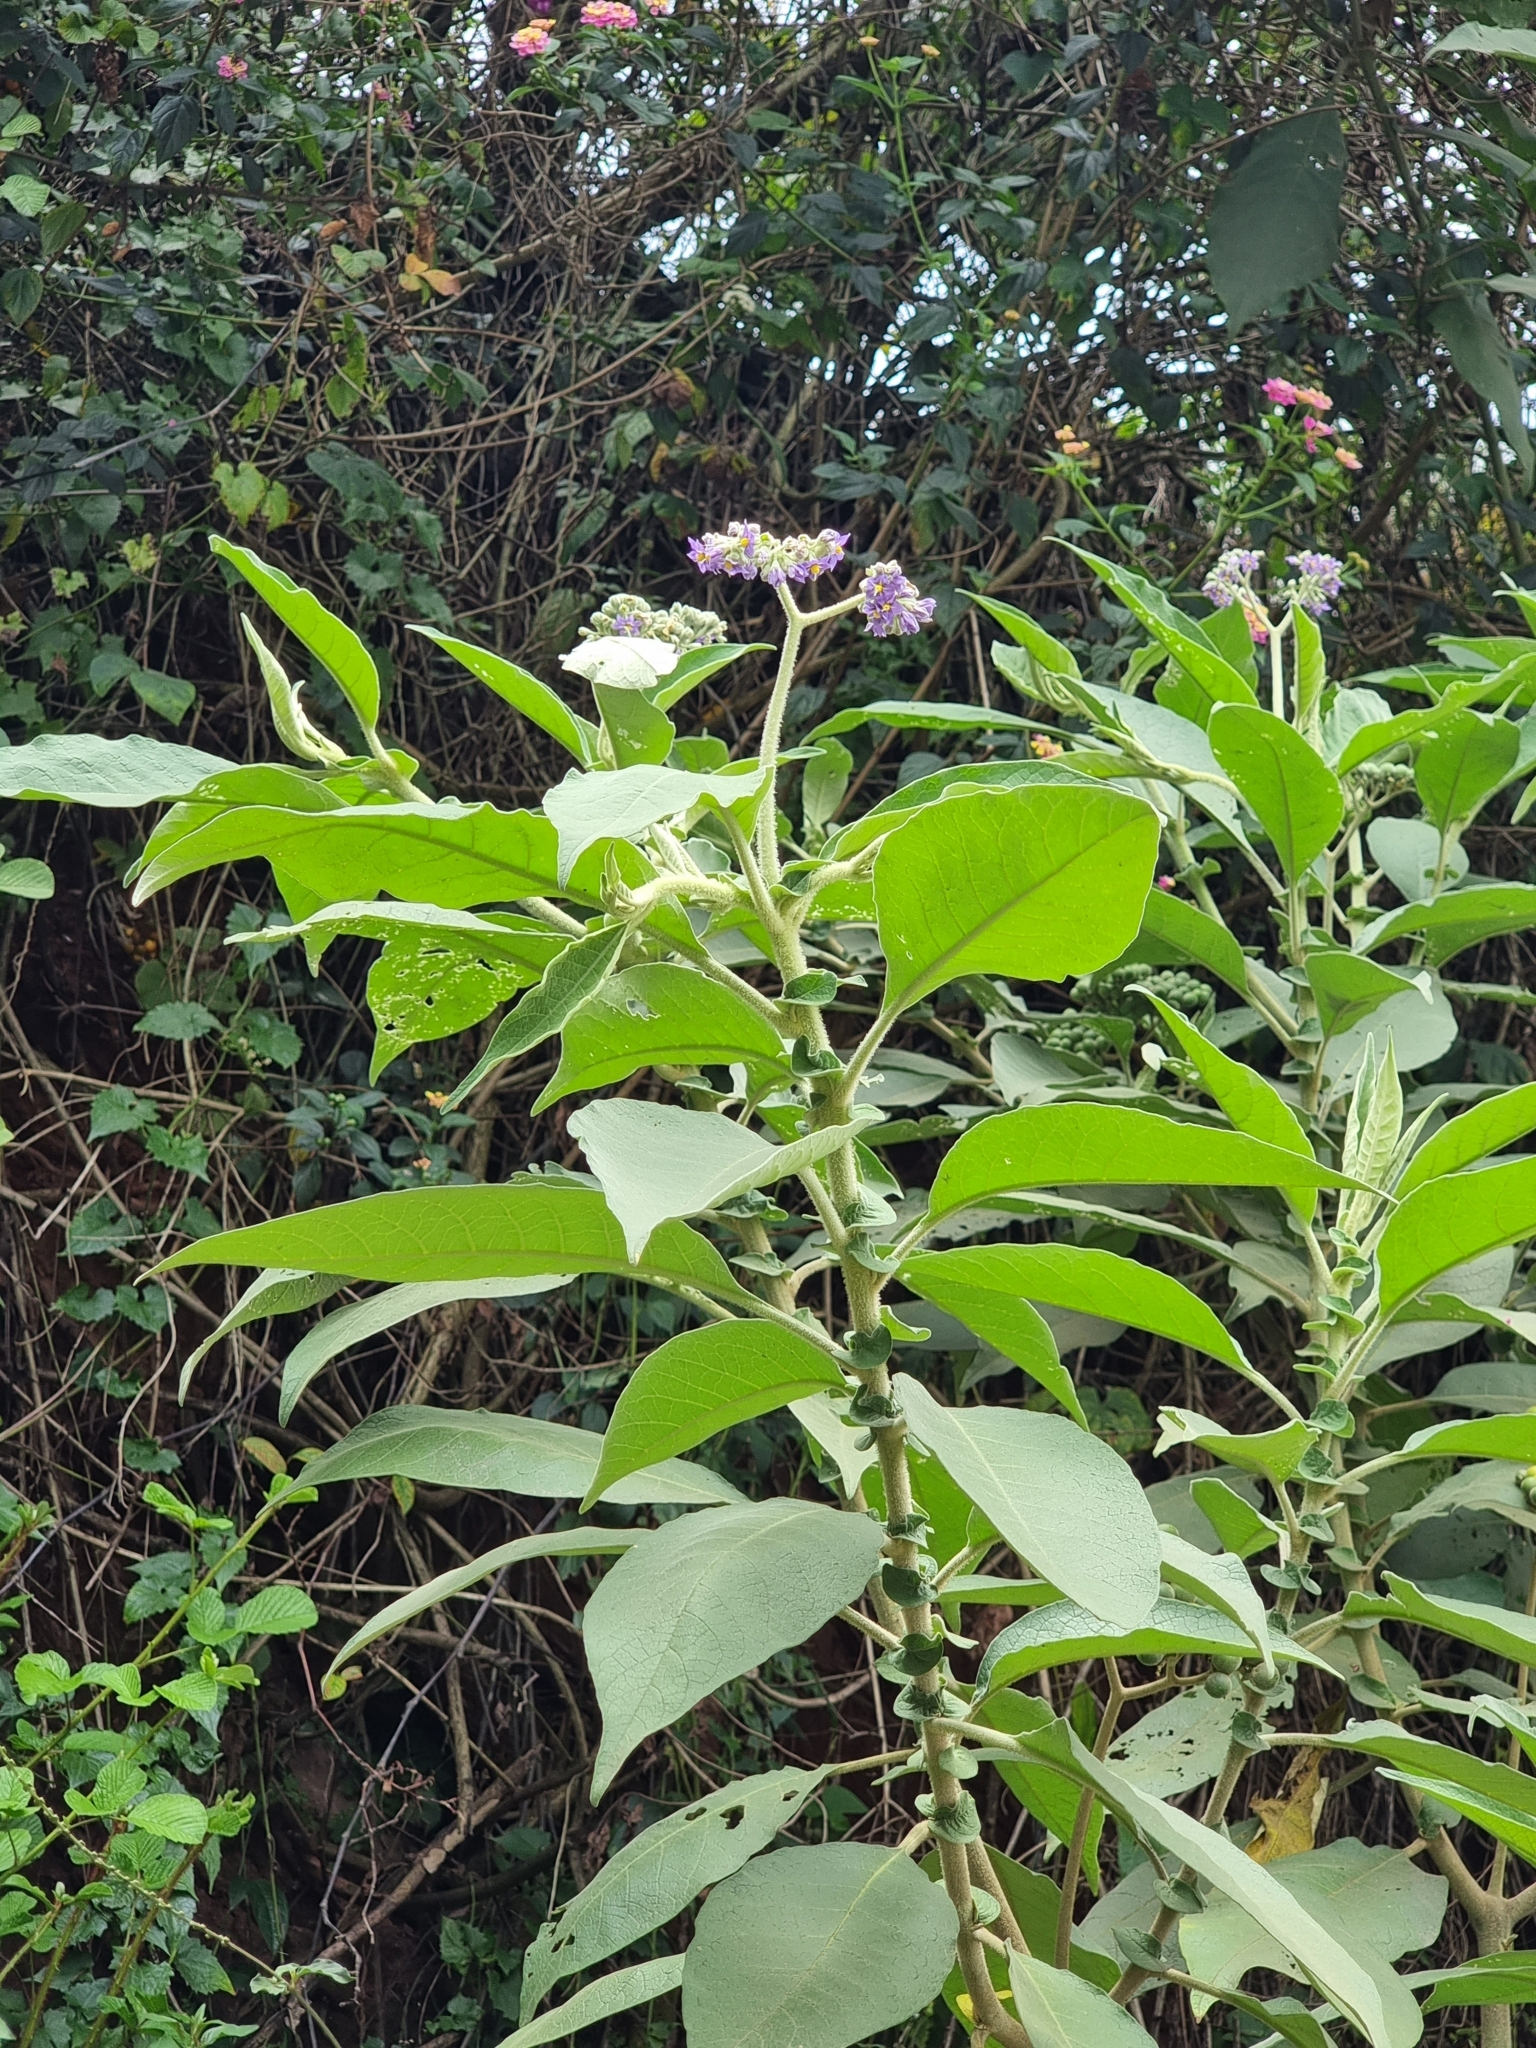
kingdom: Plantae
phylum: Tracheophyta
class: Magnoliopsida
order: Solanales
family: Solanaceae
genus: Solanum
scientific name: Solanum mauritianum
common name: Earleaf nightshade
